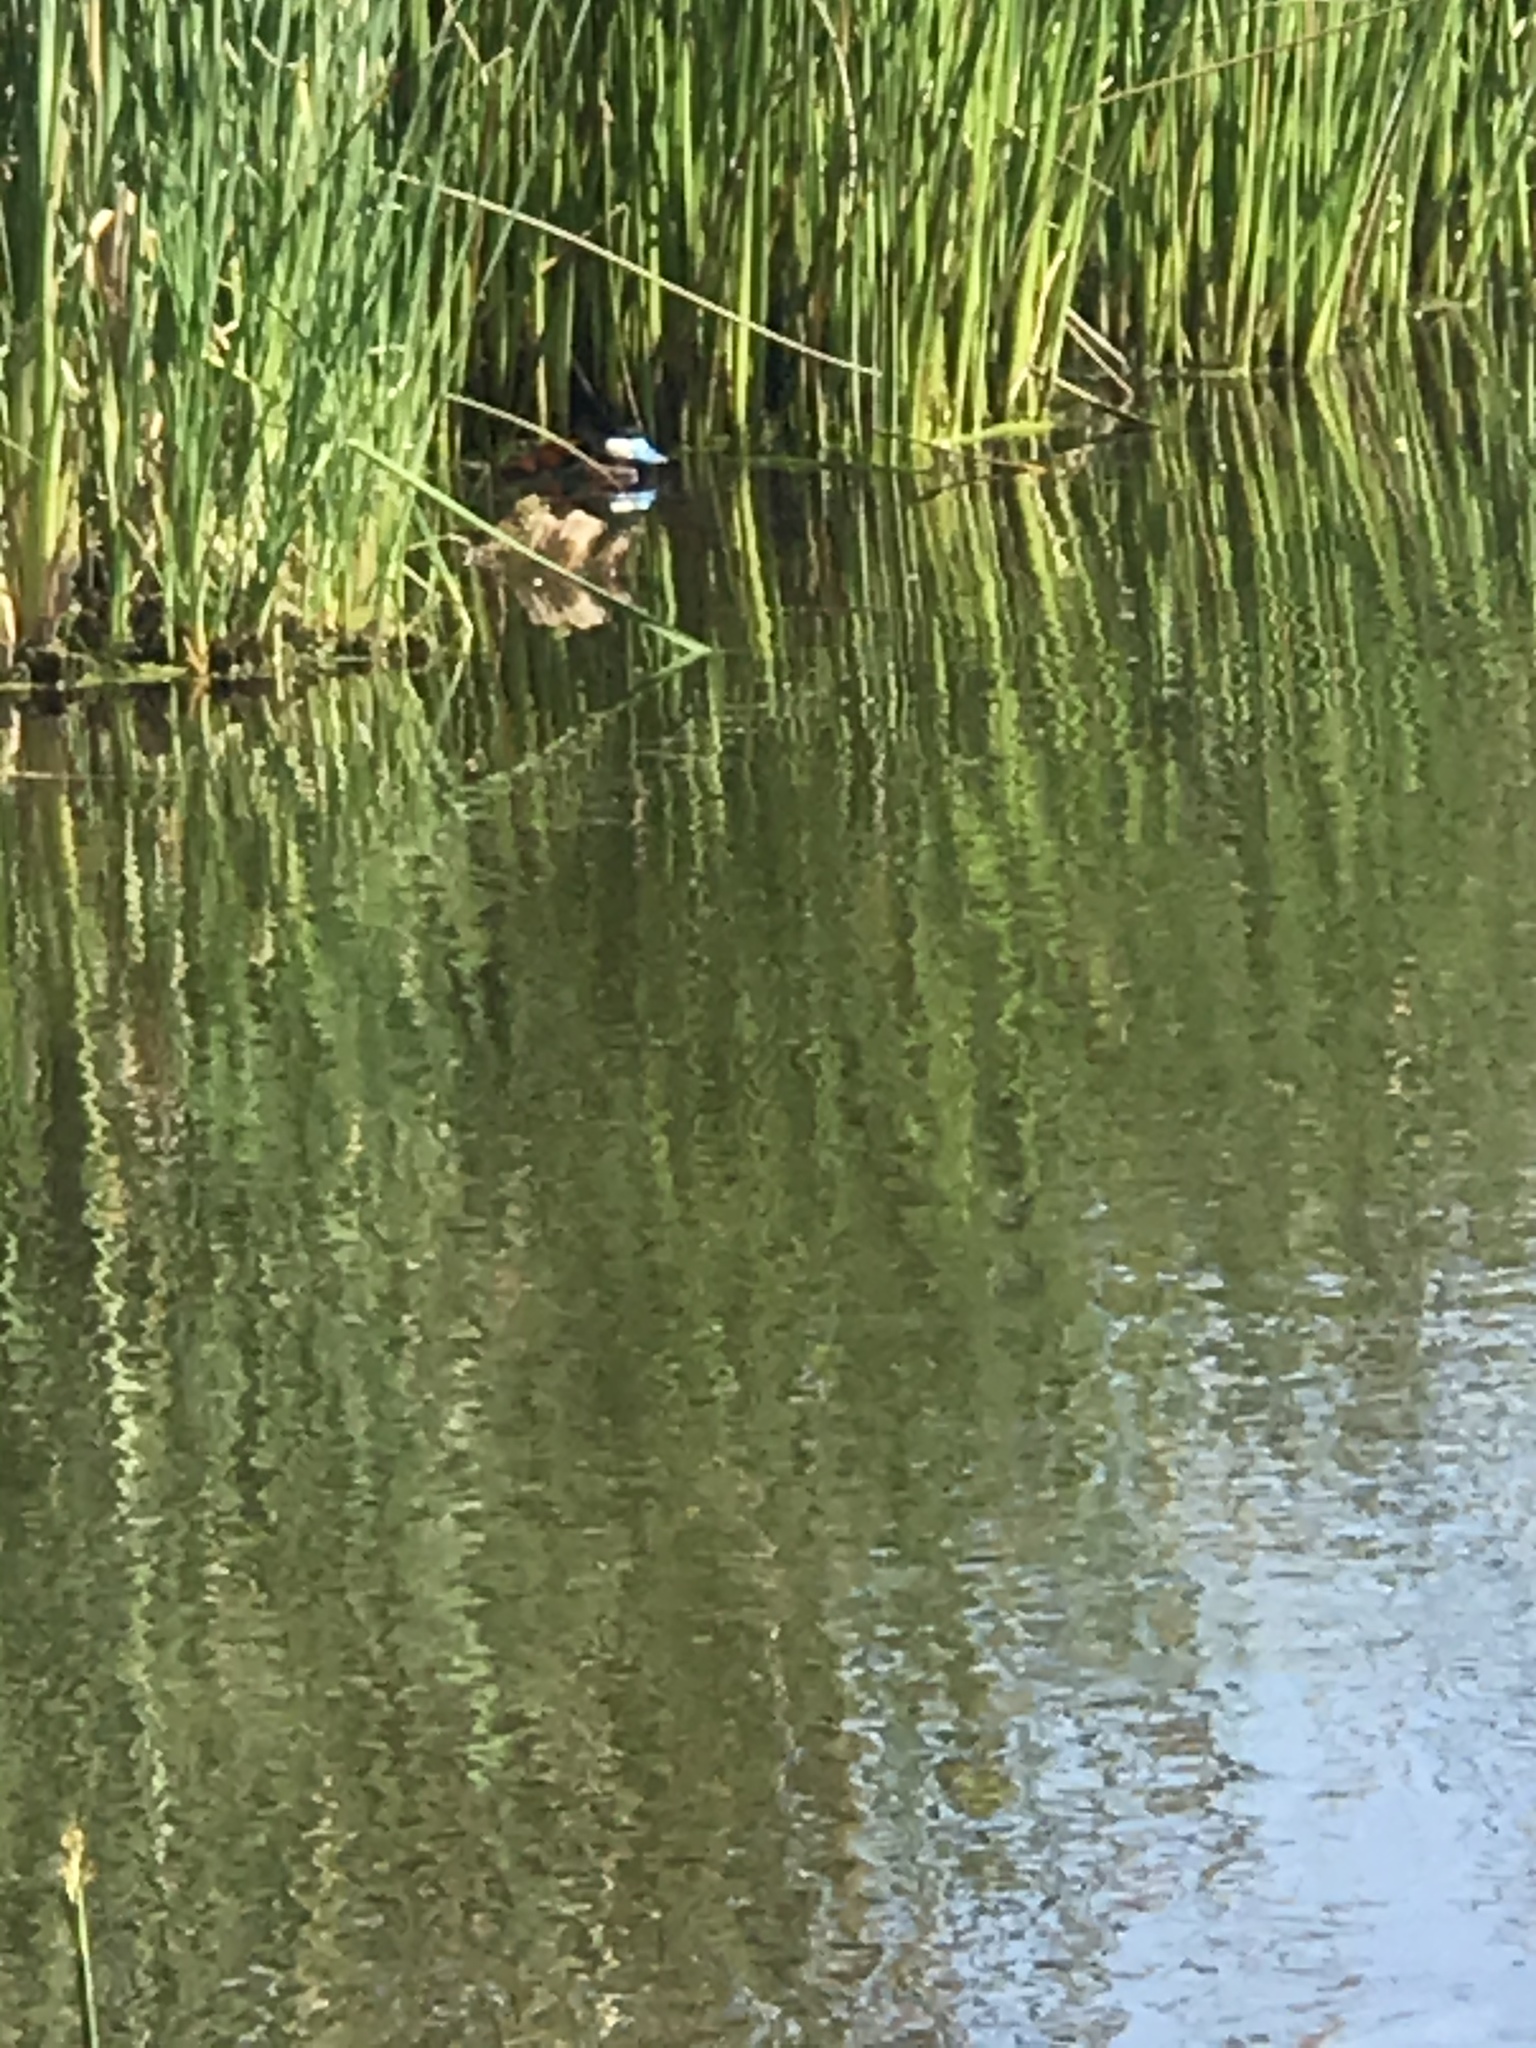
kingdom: Animalia
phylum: Chordata
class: Aves
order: Anseriformes
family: Anatidae
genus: Oxyura
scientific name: Oxyura jamaicensis
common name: Ruddy duck
